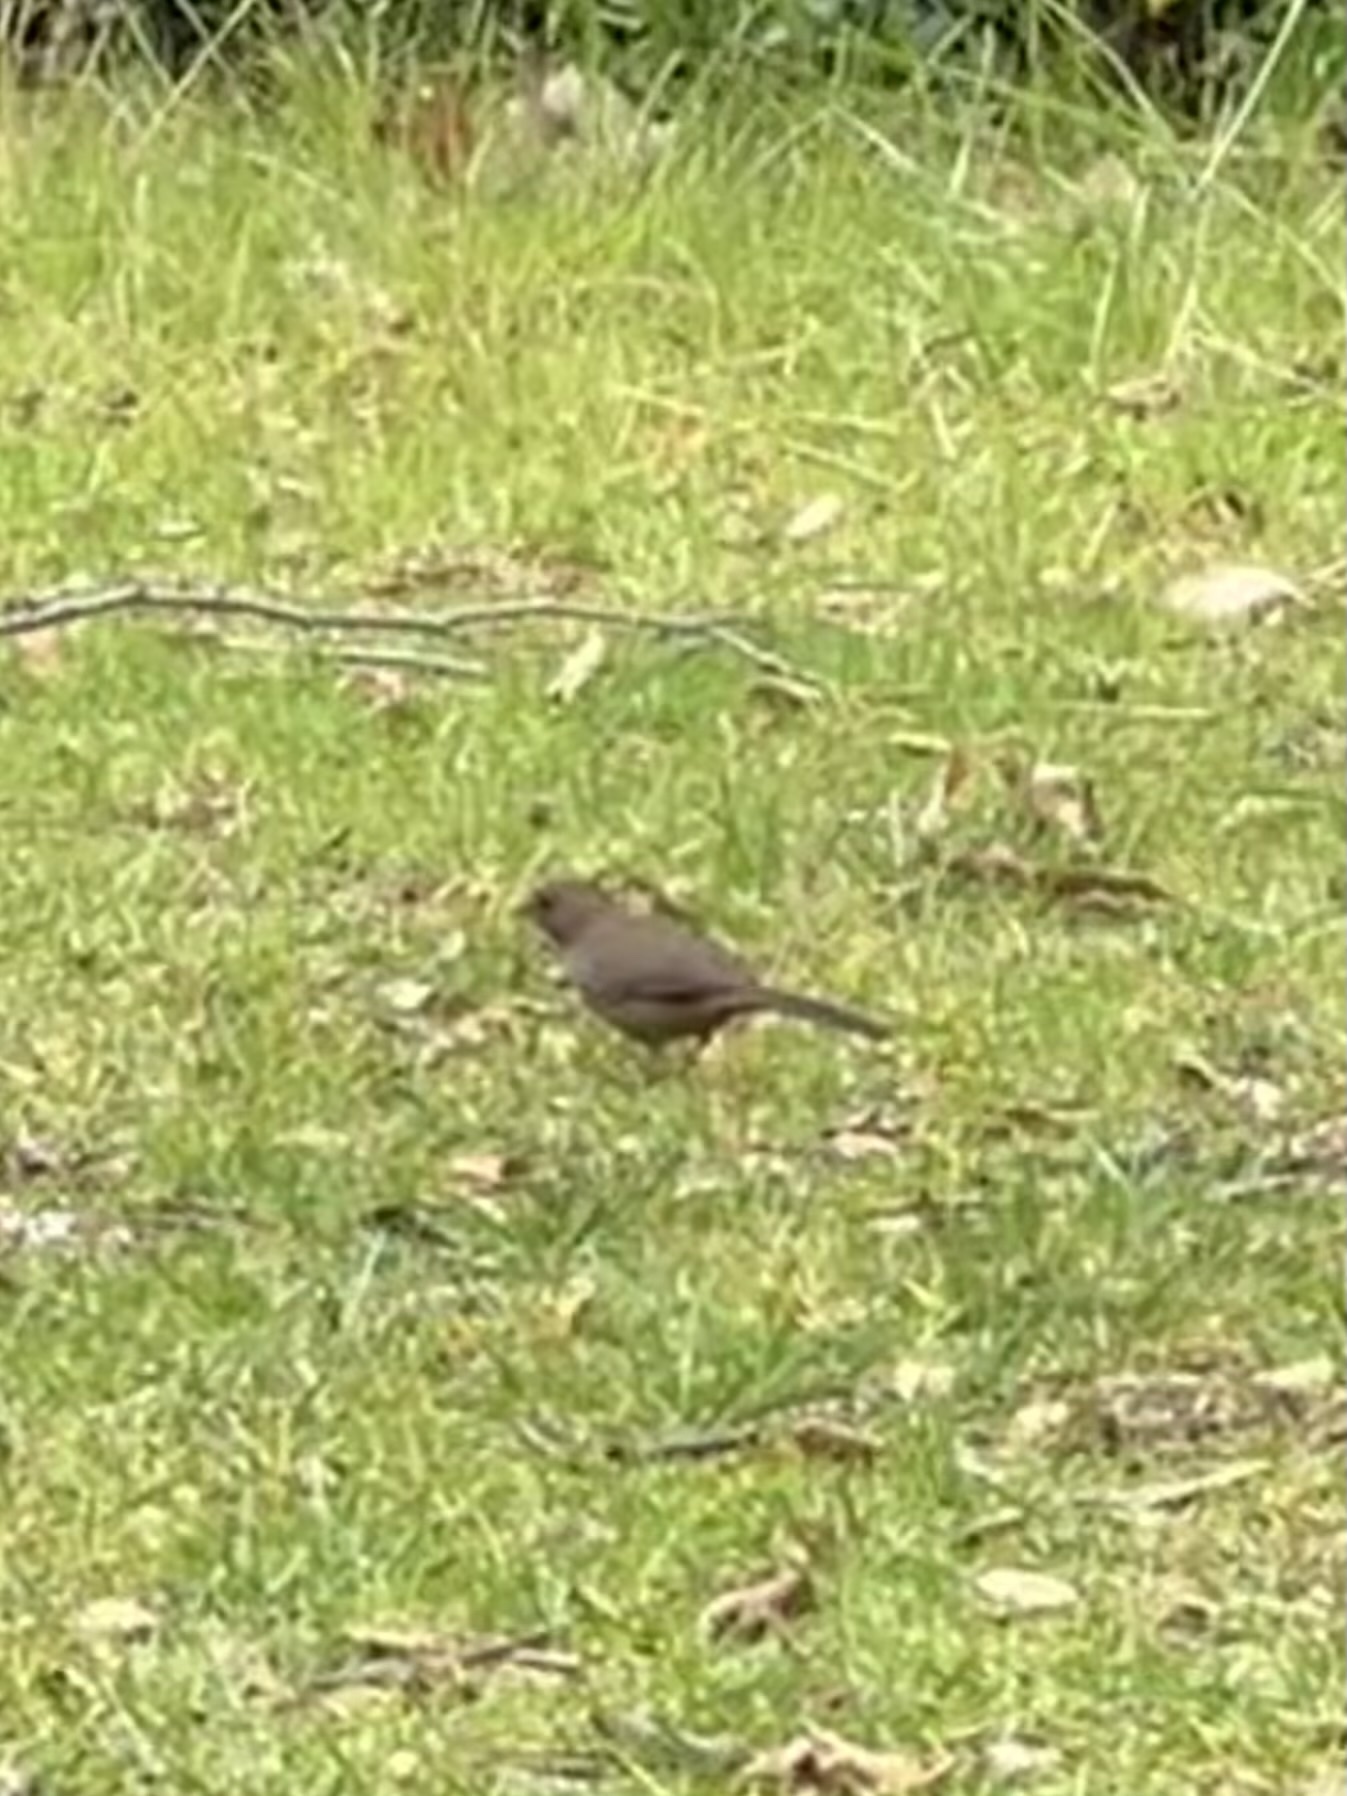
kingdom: Animalia
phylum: Chordata
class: Aves
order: Passeriformes
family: Passerellidae
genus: Melozone
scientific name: Melozone crissalis
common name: California towhee
